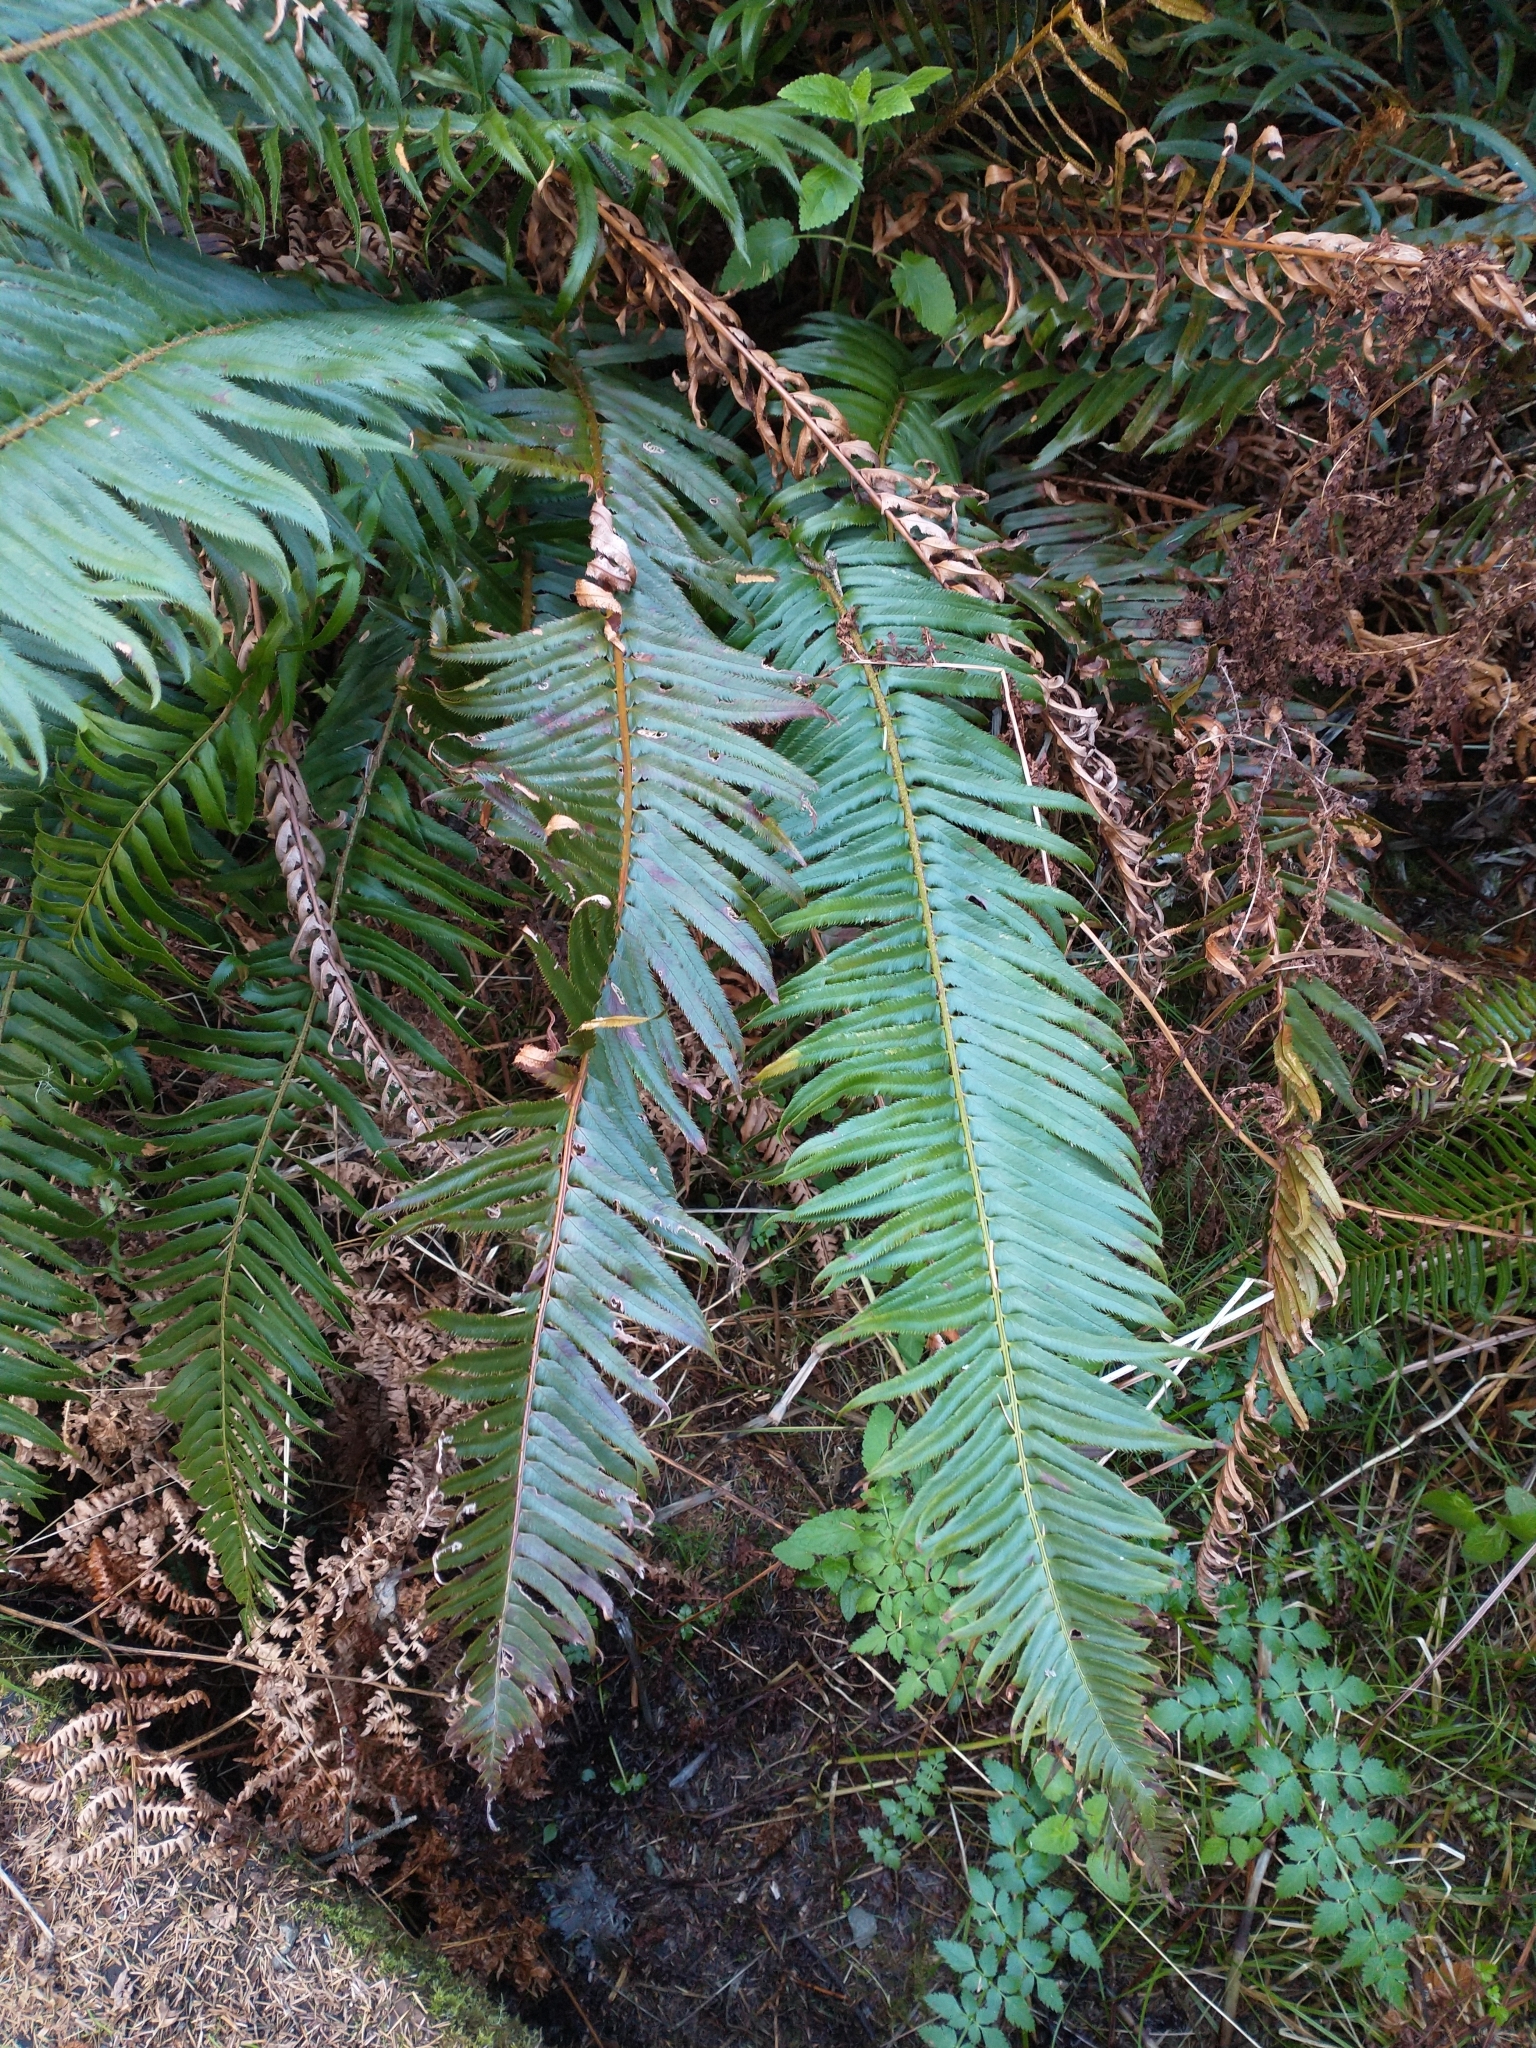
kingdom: Plantae
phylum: Tracheophyta
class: Polypodiopsida
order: Polypodiales
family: Dryopteridaceae
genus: Polystichum
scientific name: Polystichum munitum
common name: Western sword-fern
